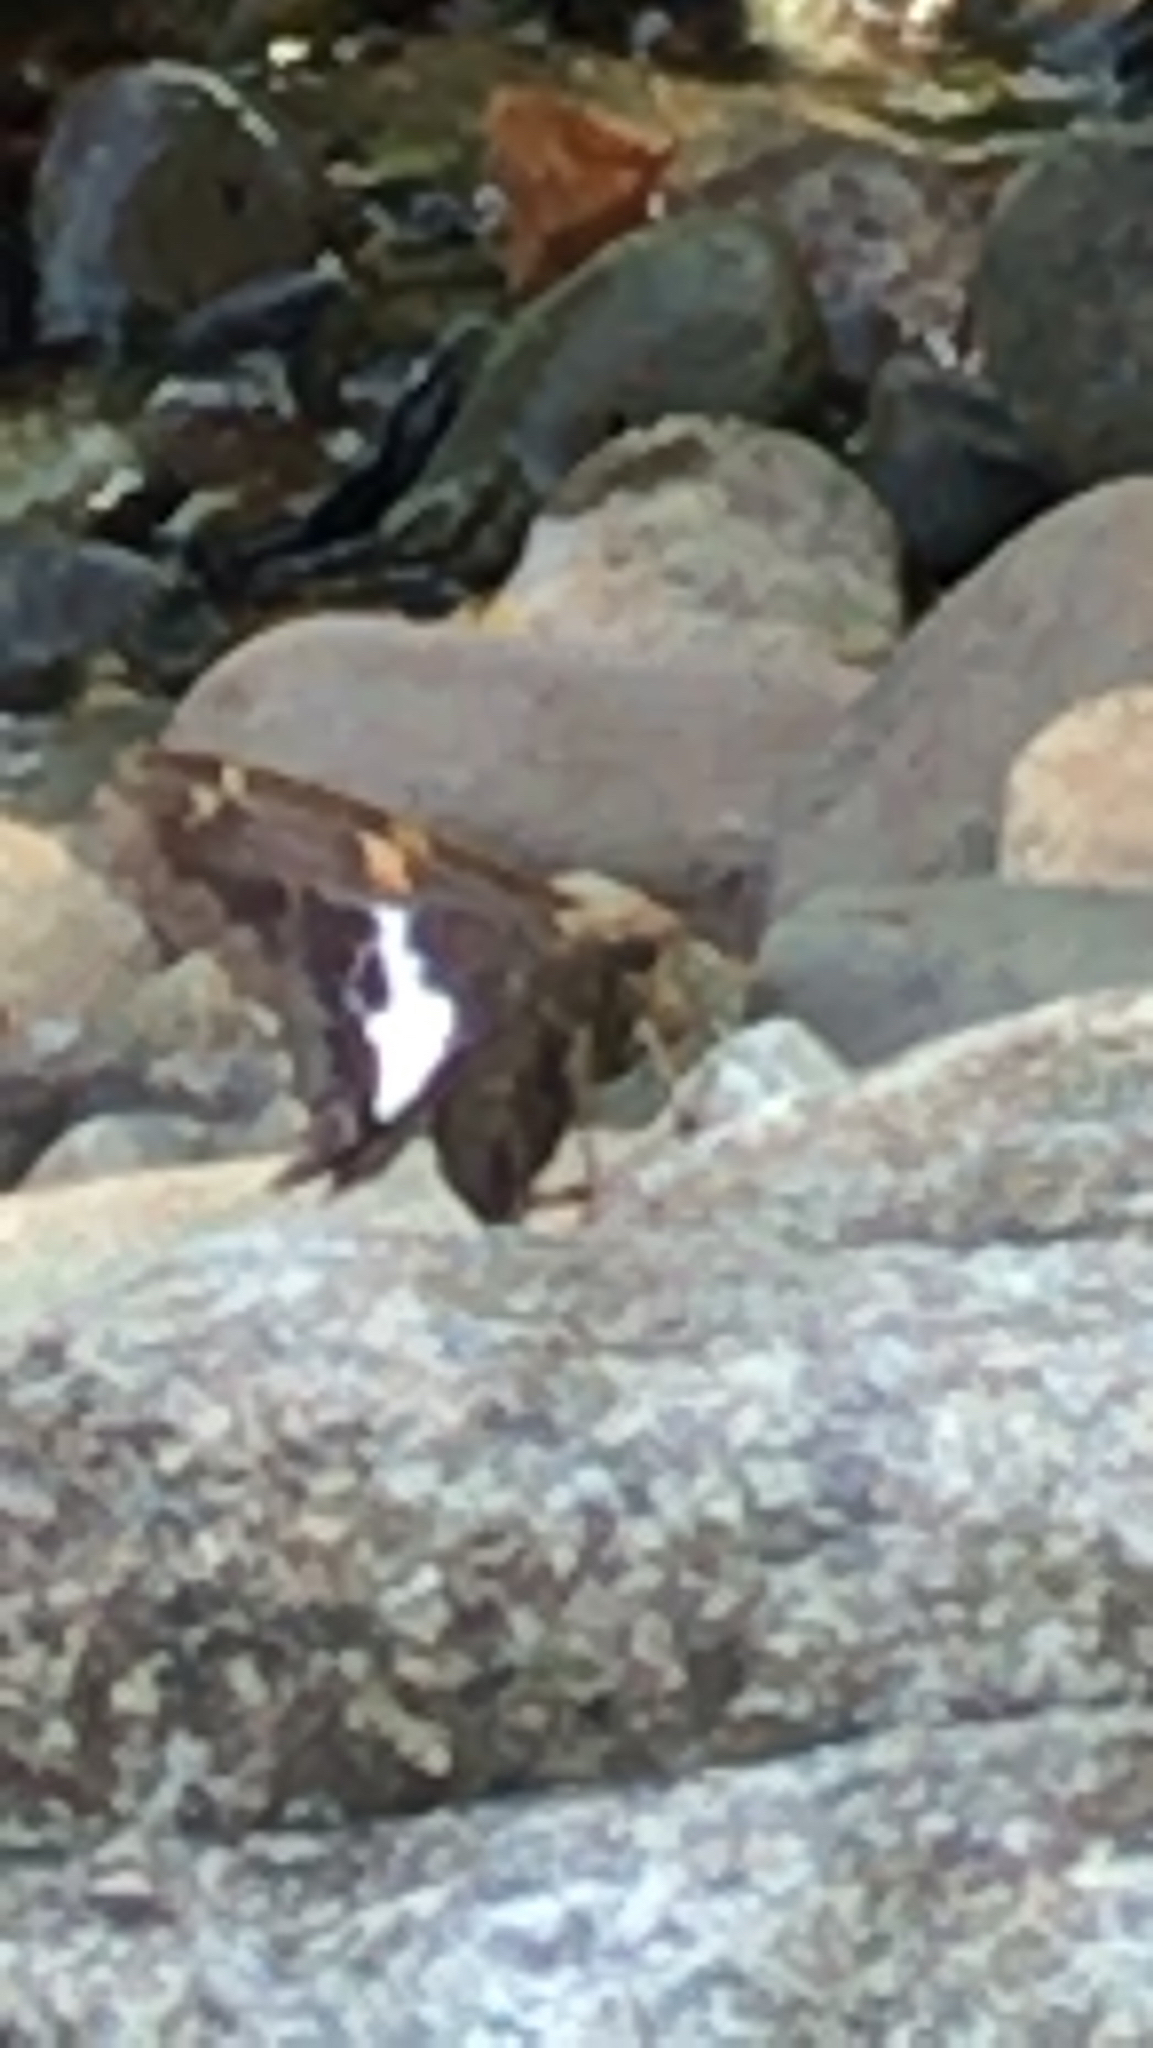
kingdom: Animalia
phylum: Arthropoda
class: Insecta
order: Lepidoptera
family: Hesperiidae
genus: Epargyreus
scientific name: Epargyreus clarus
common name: Silver-spotted skipper
